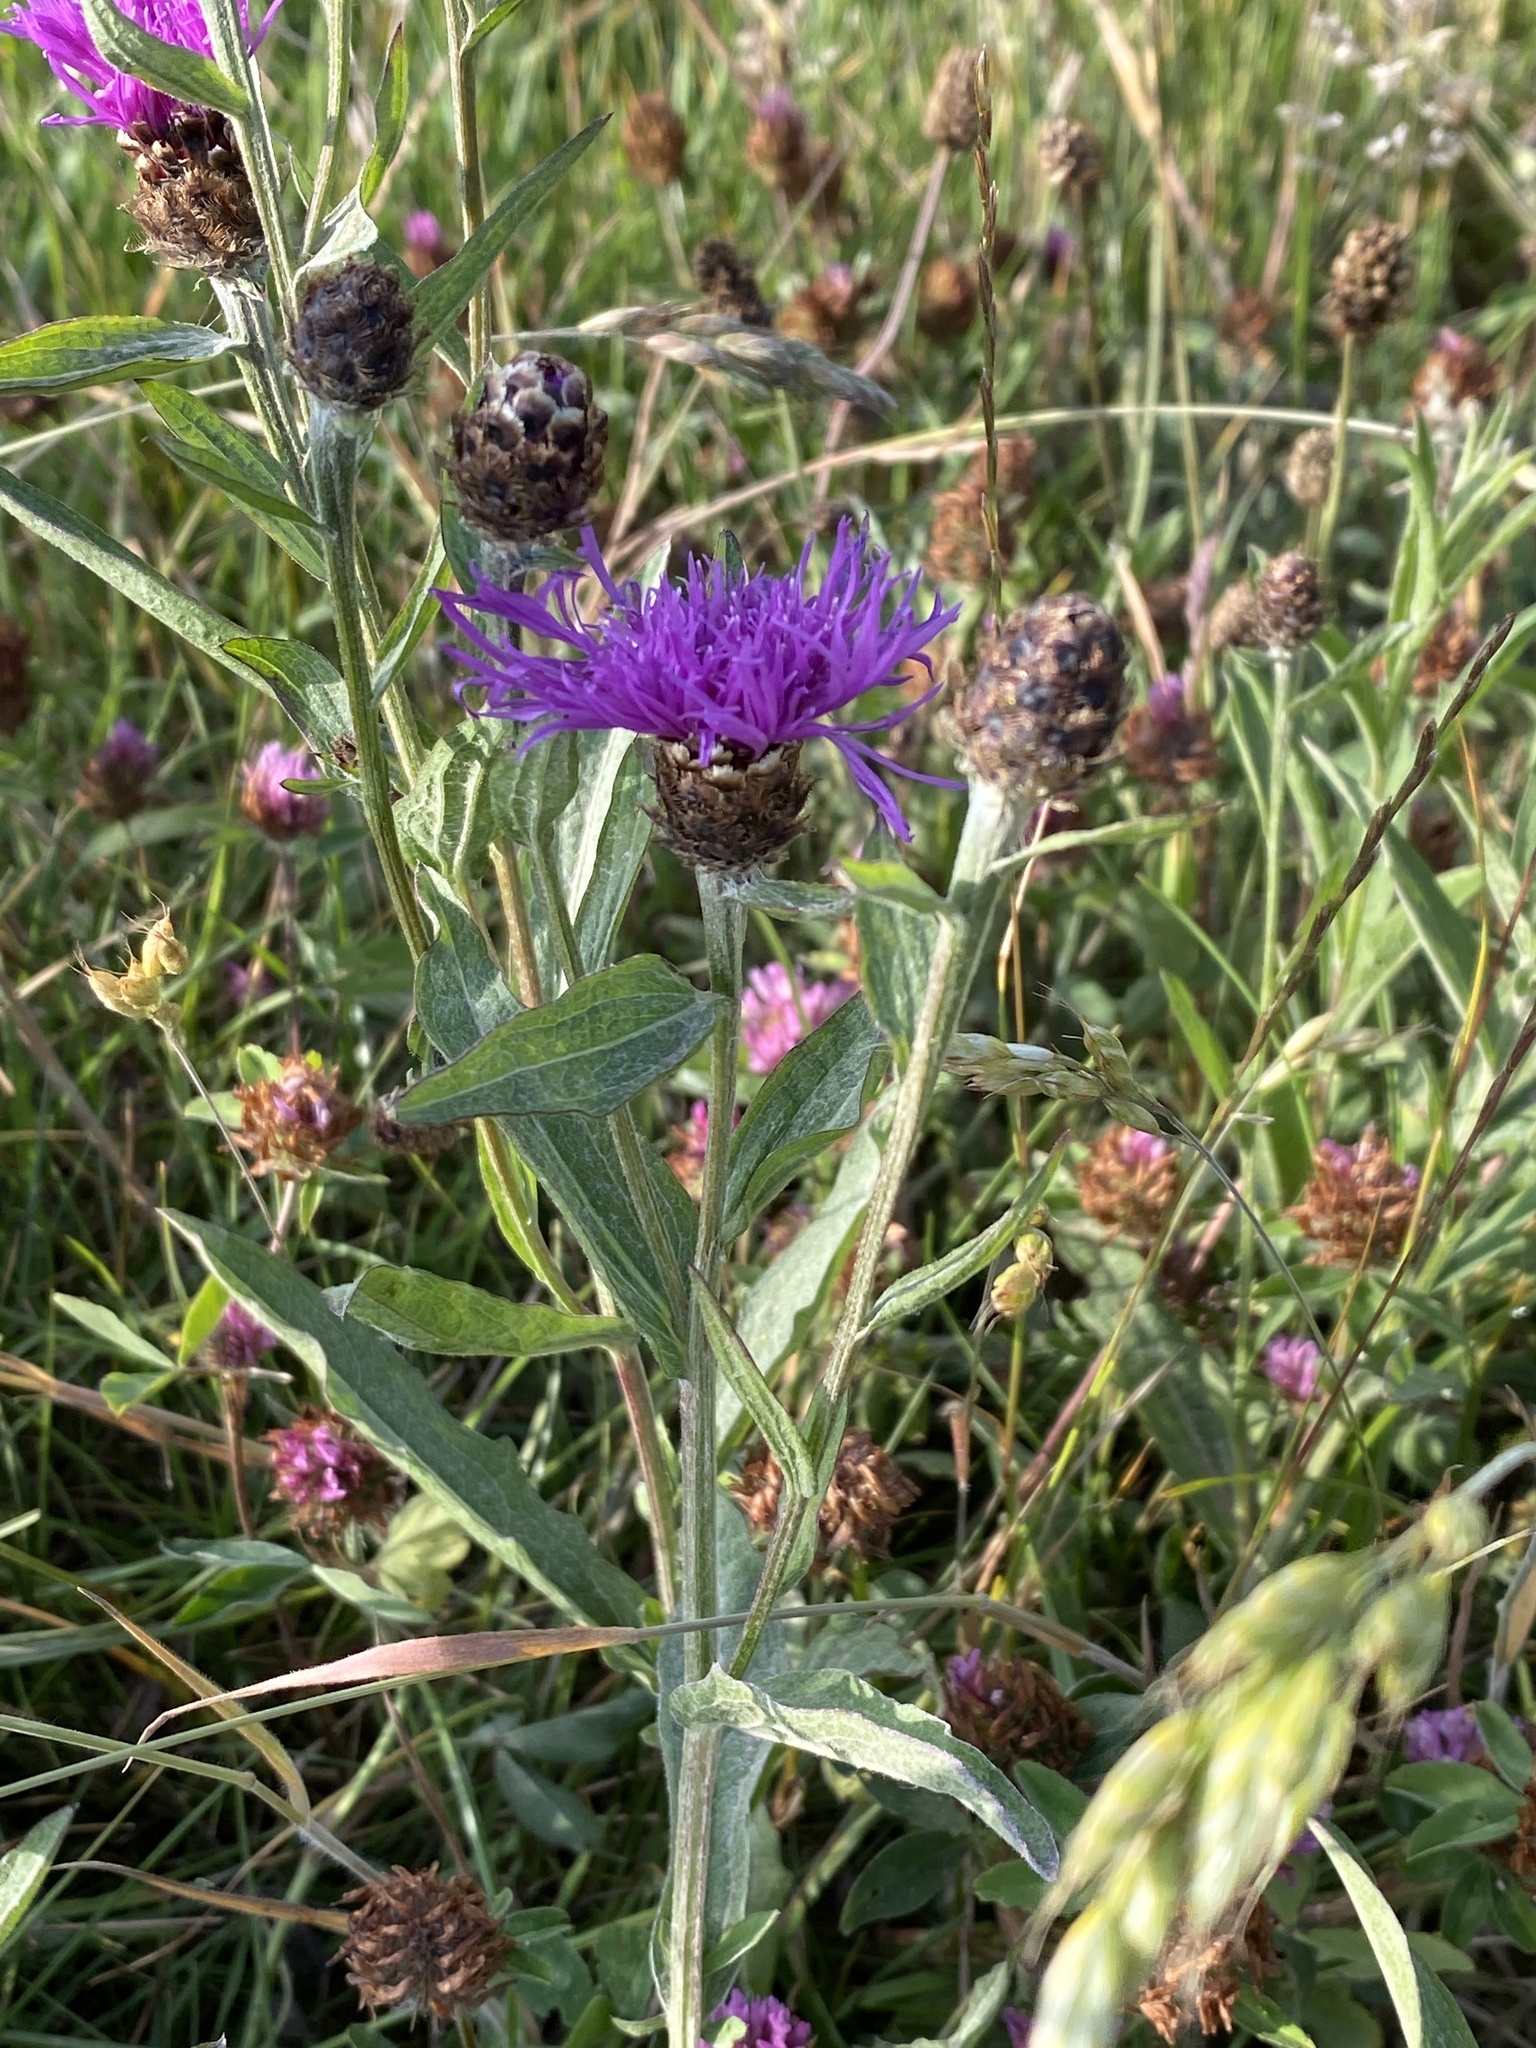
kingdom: Plantae
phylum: Tracheophyta
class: Magnoliopsida
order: Asterales
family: Asteraceae
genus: Centaurea
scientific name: Centaurea jacea
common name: Brown knapweed
